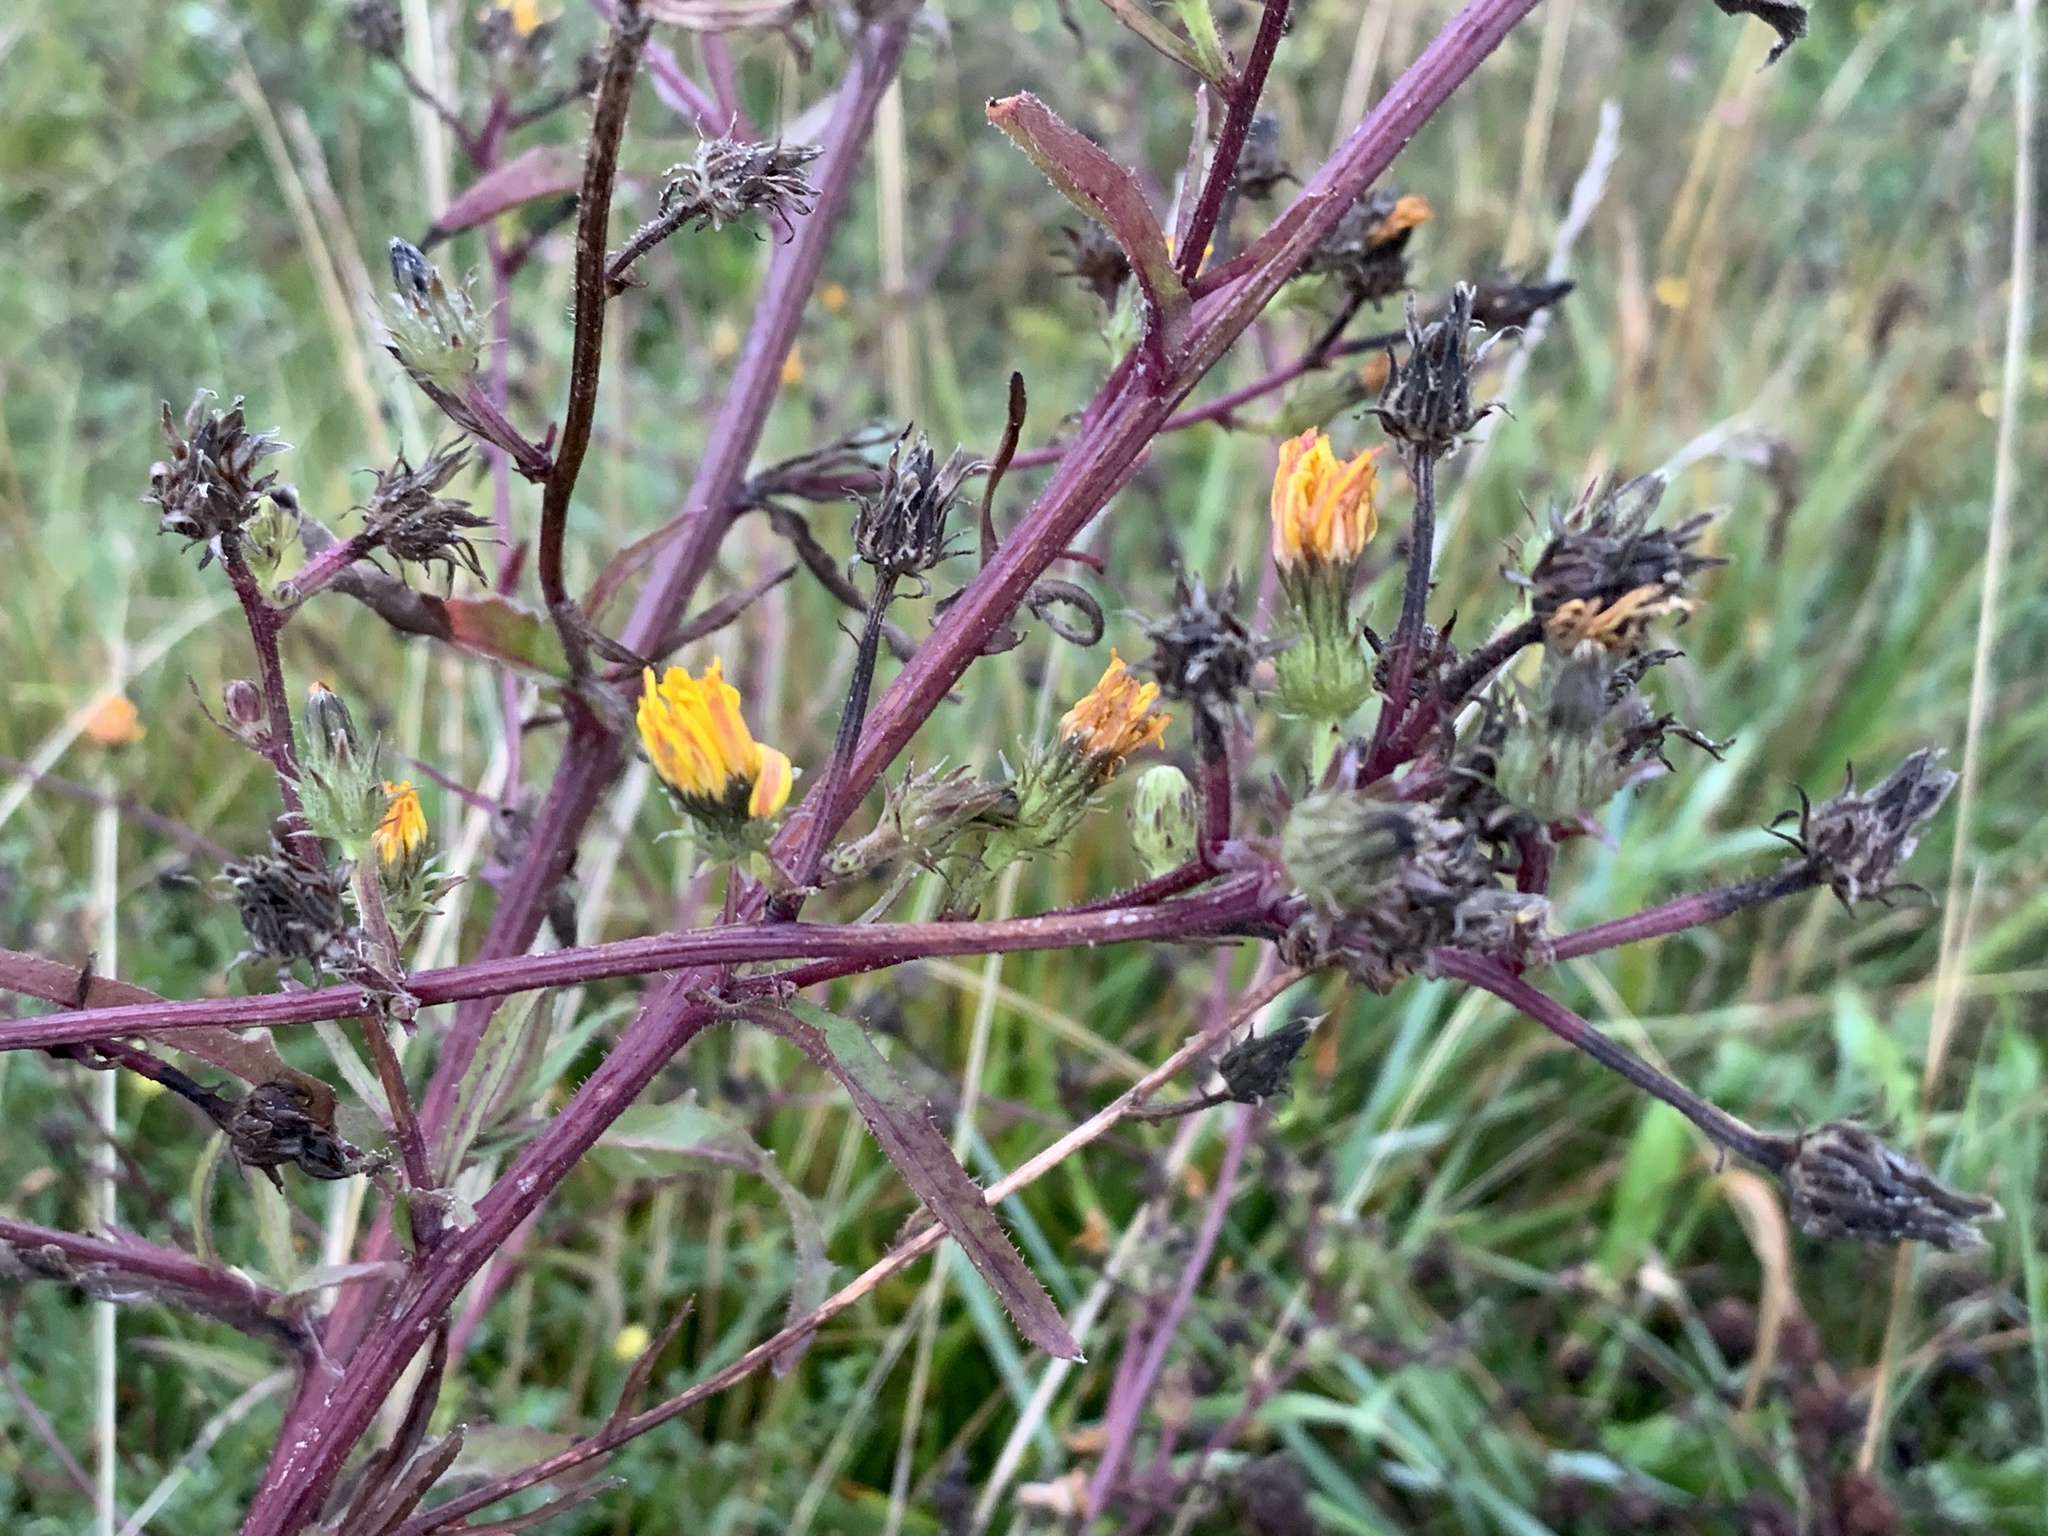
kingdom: Plantae
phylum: Tracheophyta
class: Magnoliopsida
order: Asterales
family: Asteraceae
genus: Picris
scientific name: Picris hieracioides
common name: Hawkweed oxtongue
